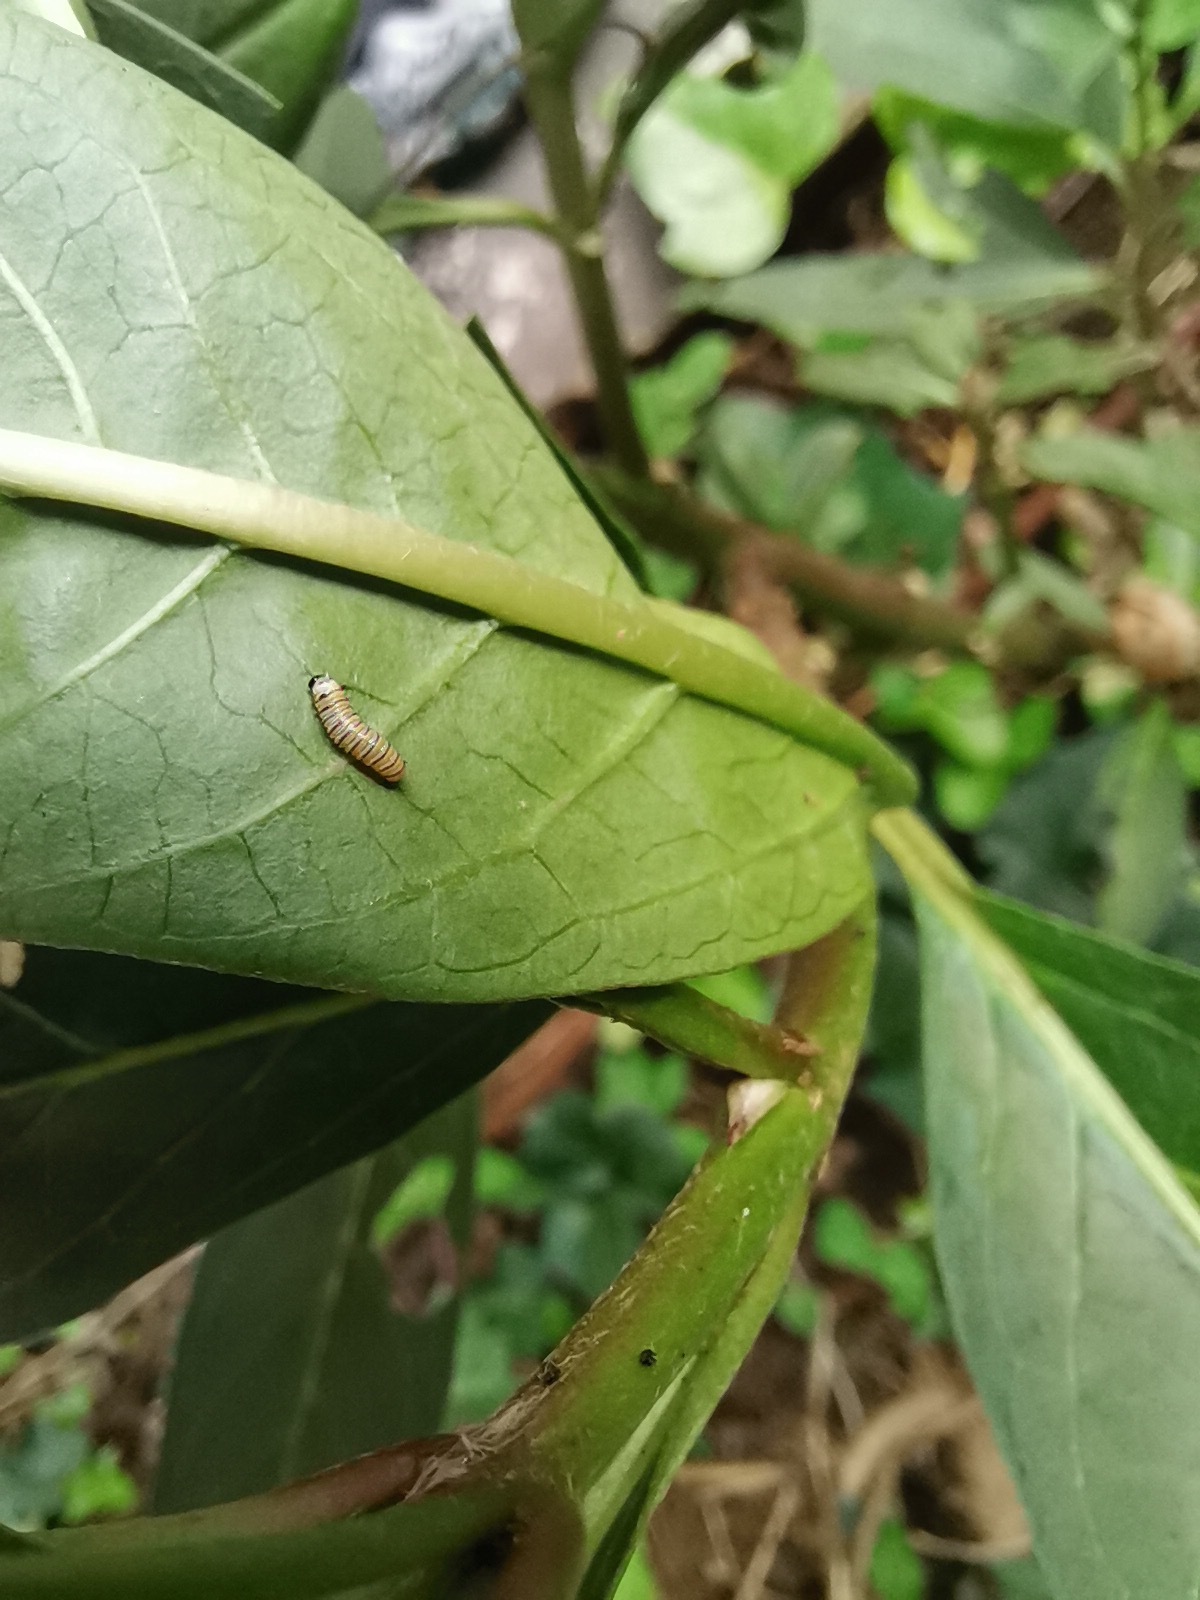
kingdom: Animalia
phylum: Arthropoda
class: Insecta
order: Lepidoptera
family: Nymphalidae
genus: Danaus
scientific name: Danaus plexippus
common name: Monarch
